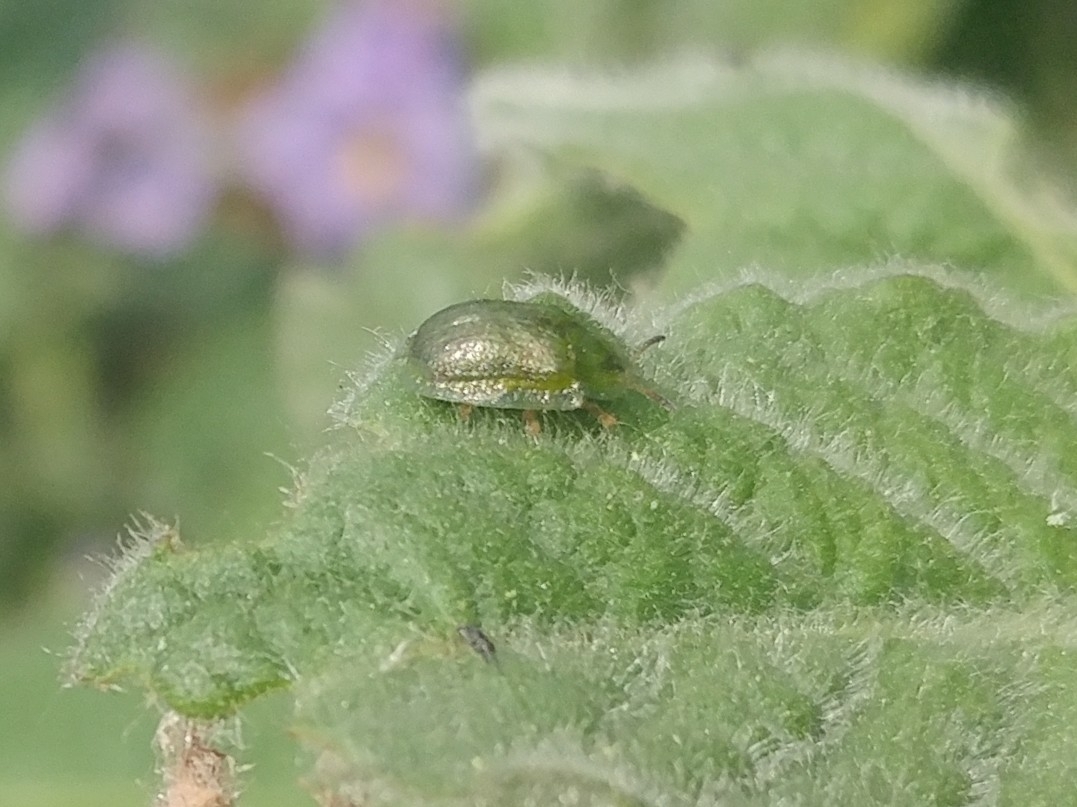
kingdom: Animalia
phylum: Arthropoda
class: Insecta
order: Coleoptera
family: Chrysomelidae
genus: Gratiana
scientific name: Gratiana pallidula
